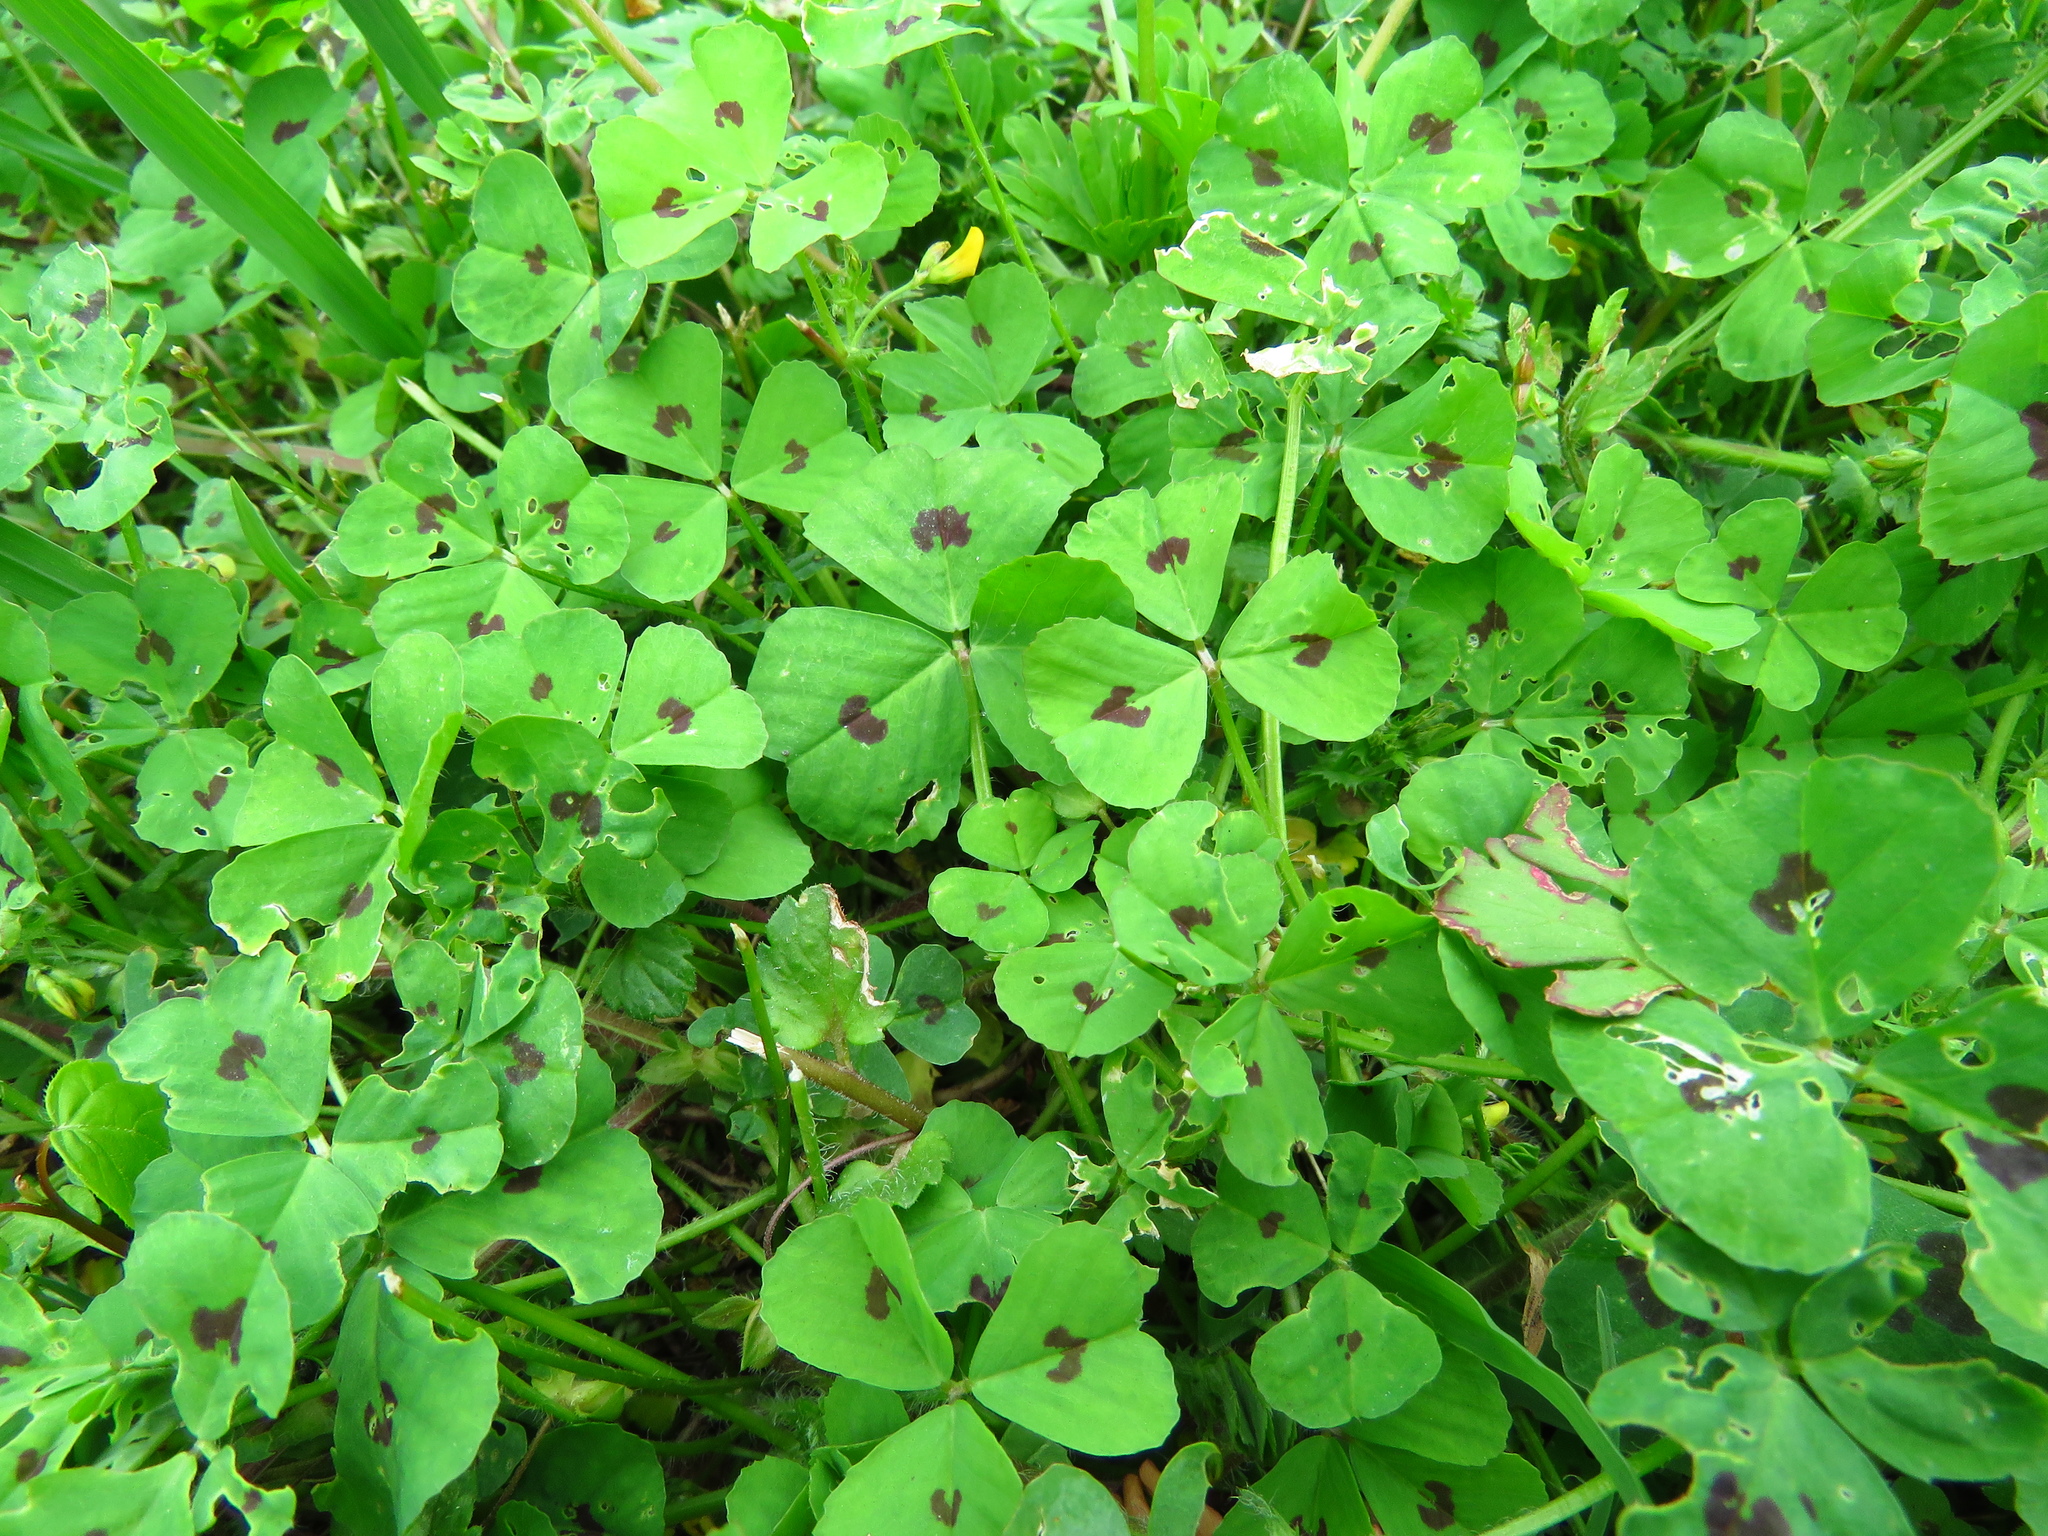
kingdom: Plantae
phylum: Tracheophyta
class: Magnoliopsida
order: Fabales
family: Fabaceae
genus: Medicago
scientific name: Medicago arabica
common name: Spotted medick
